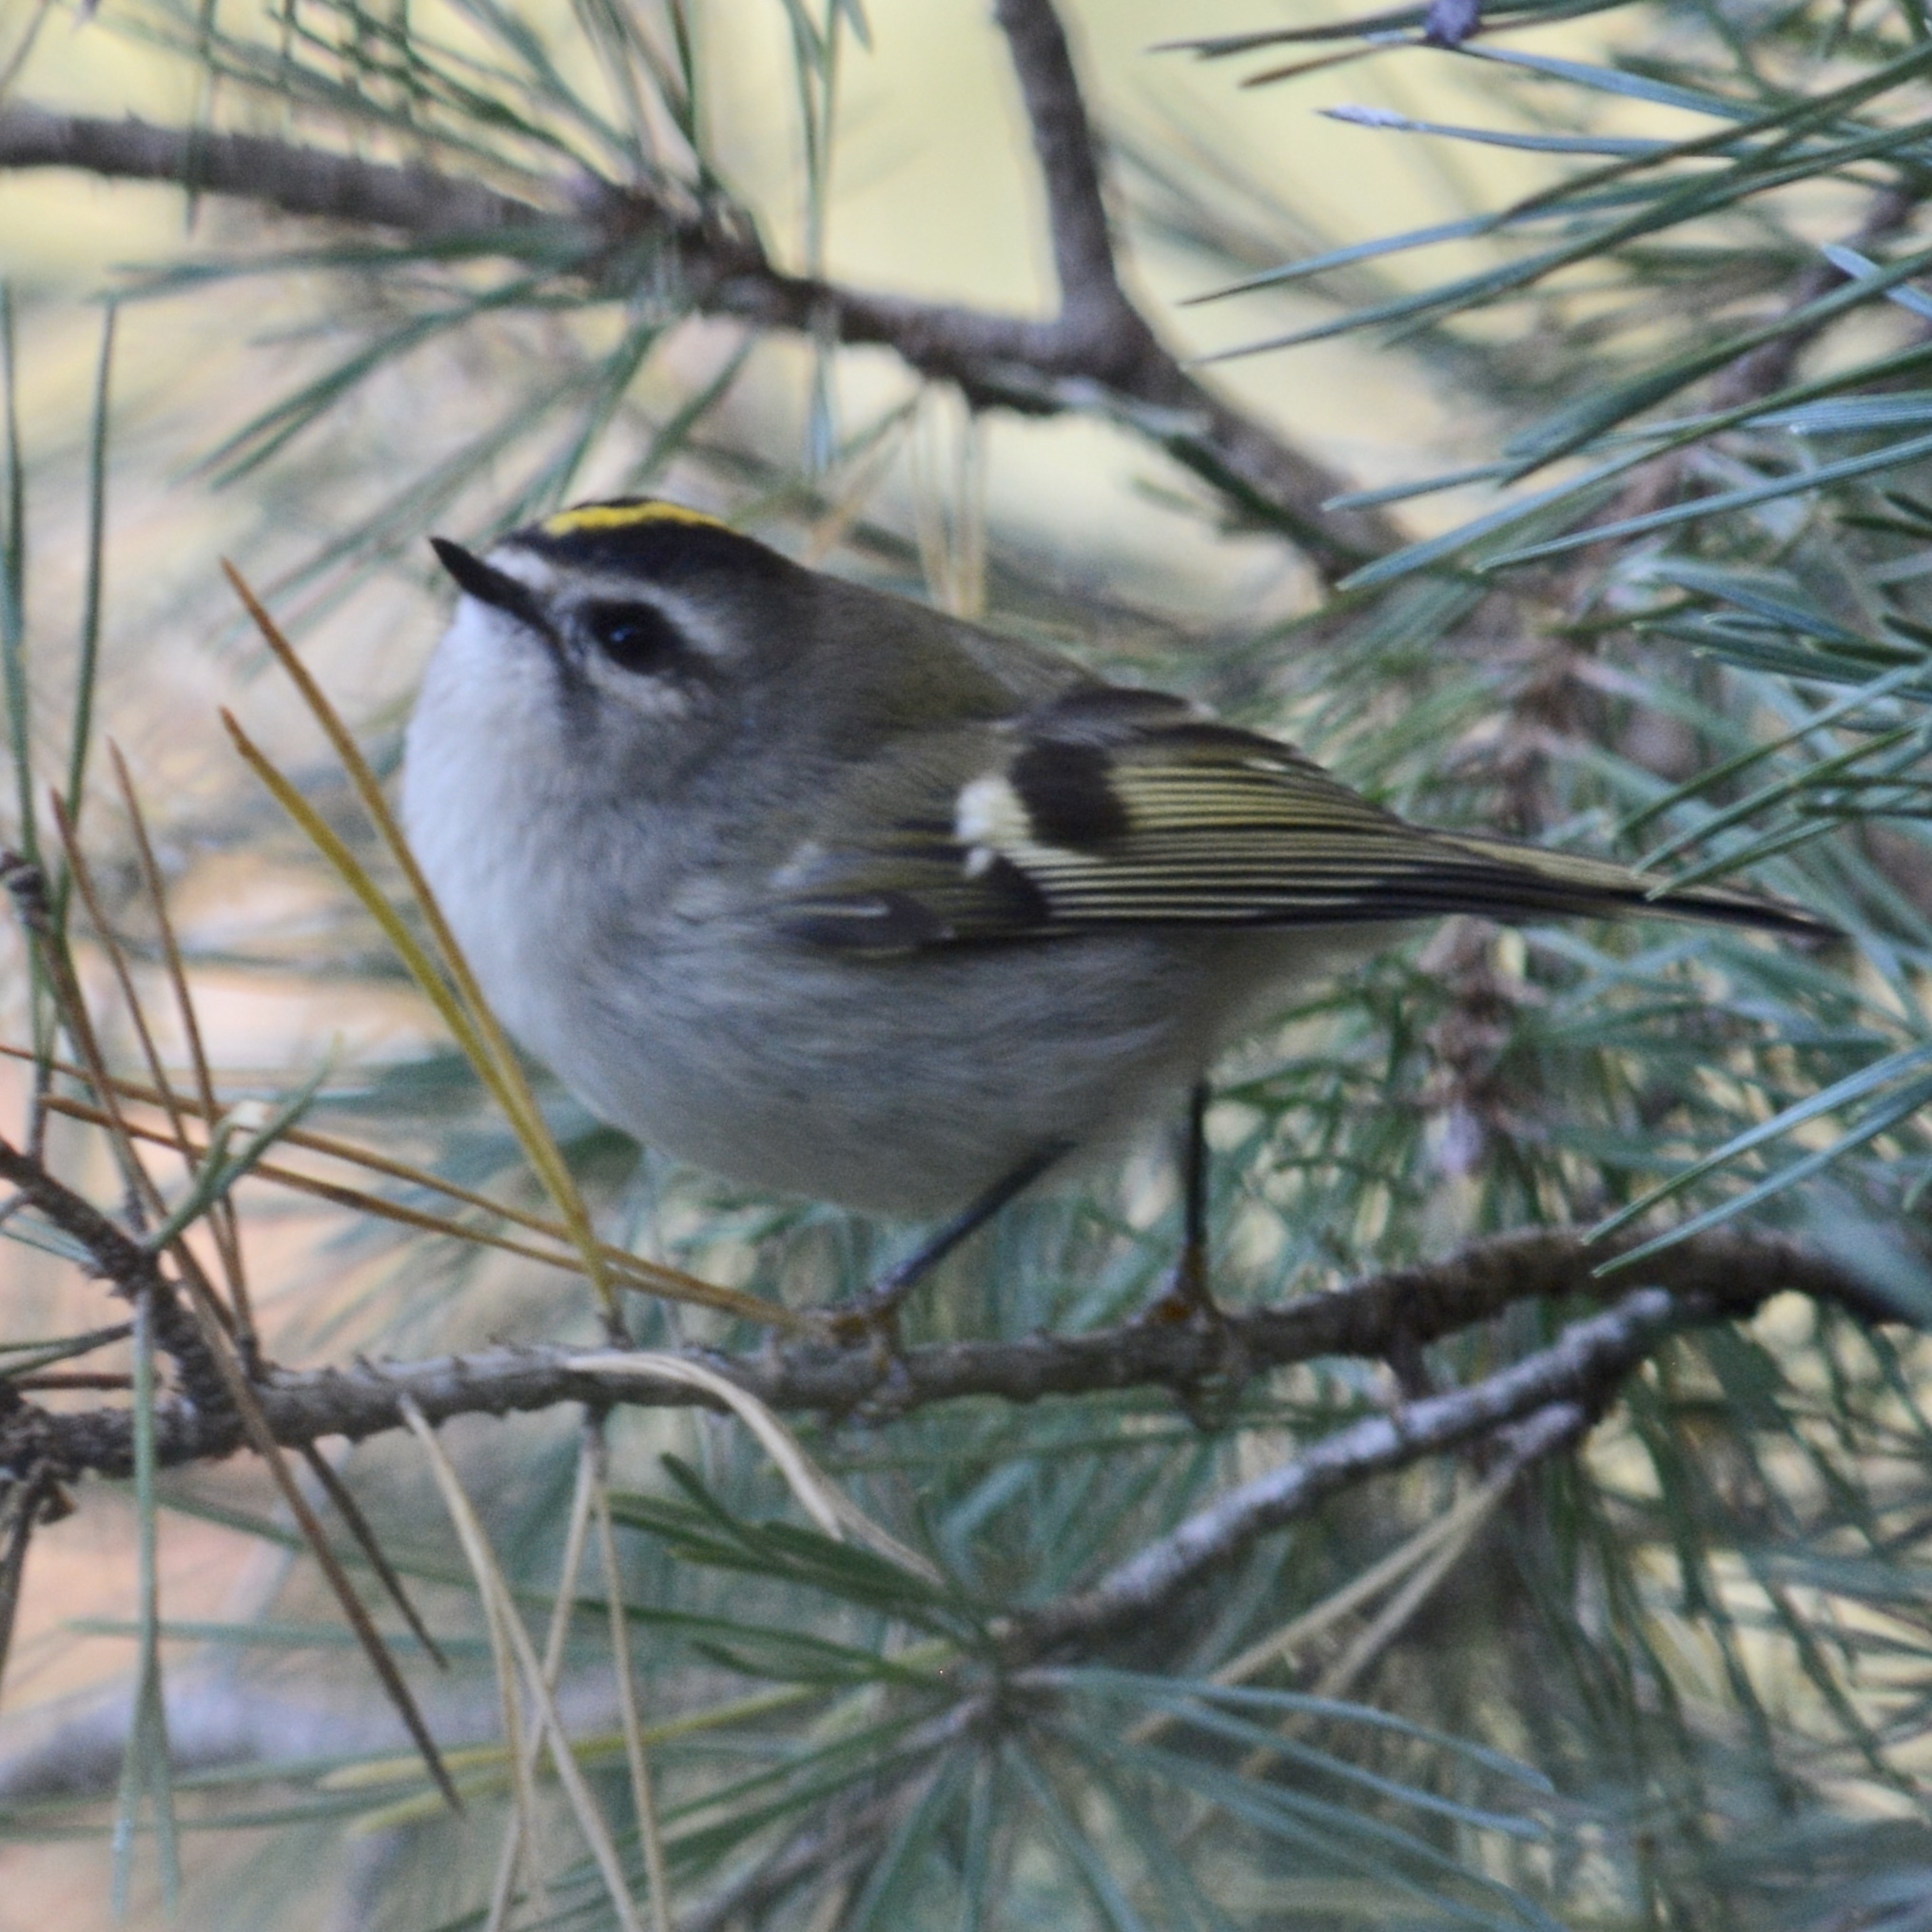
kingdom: Animalia
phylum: Chordata
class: Aves
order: Passeriformes
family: Regulidae
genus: Regulus
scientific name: Regulus satrapa
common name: Golden-crowned kinglet
